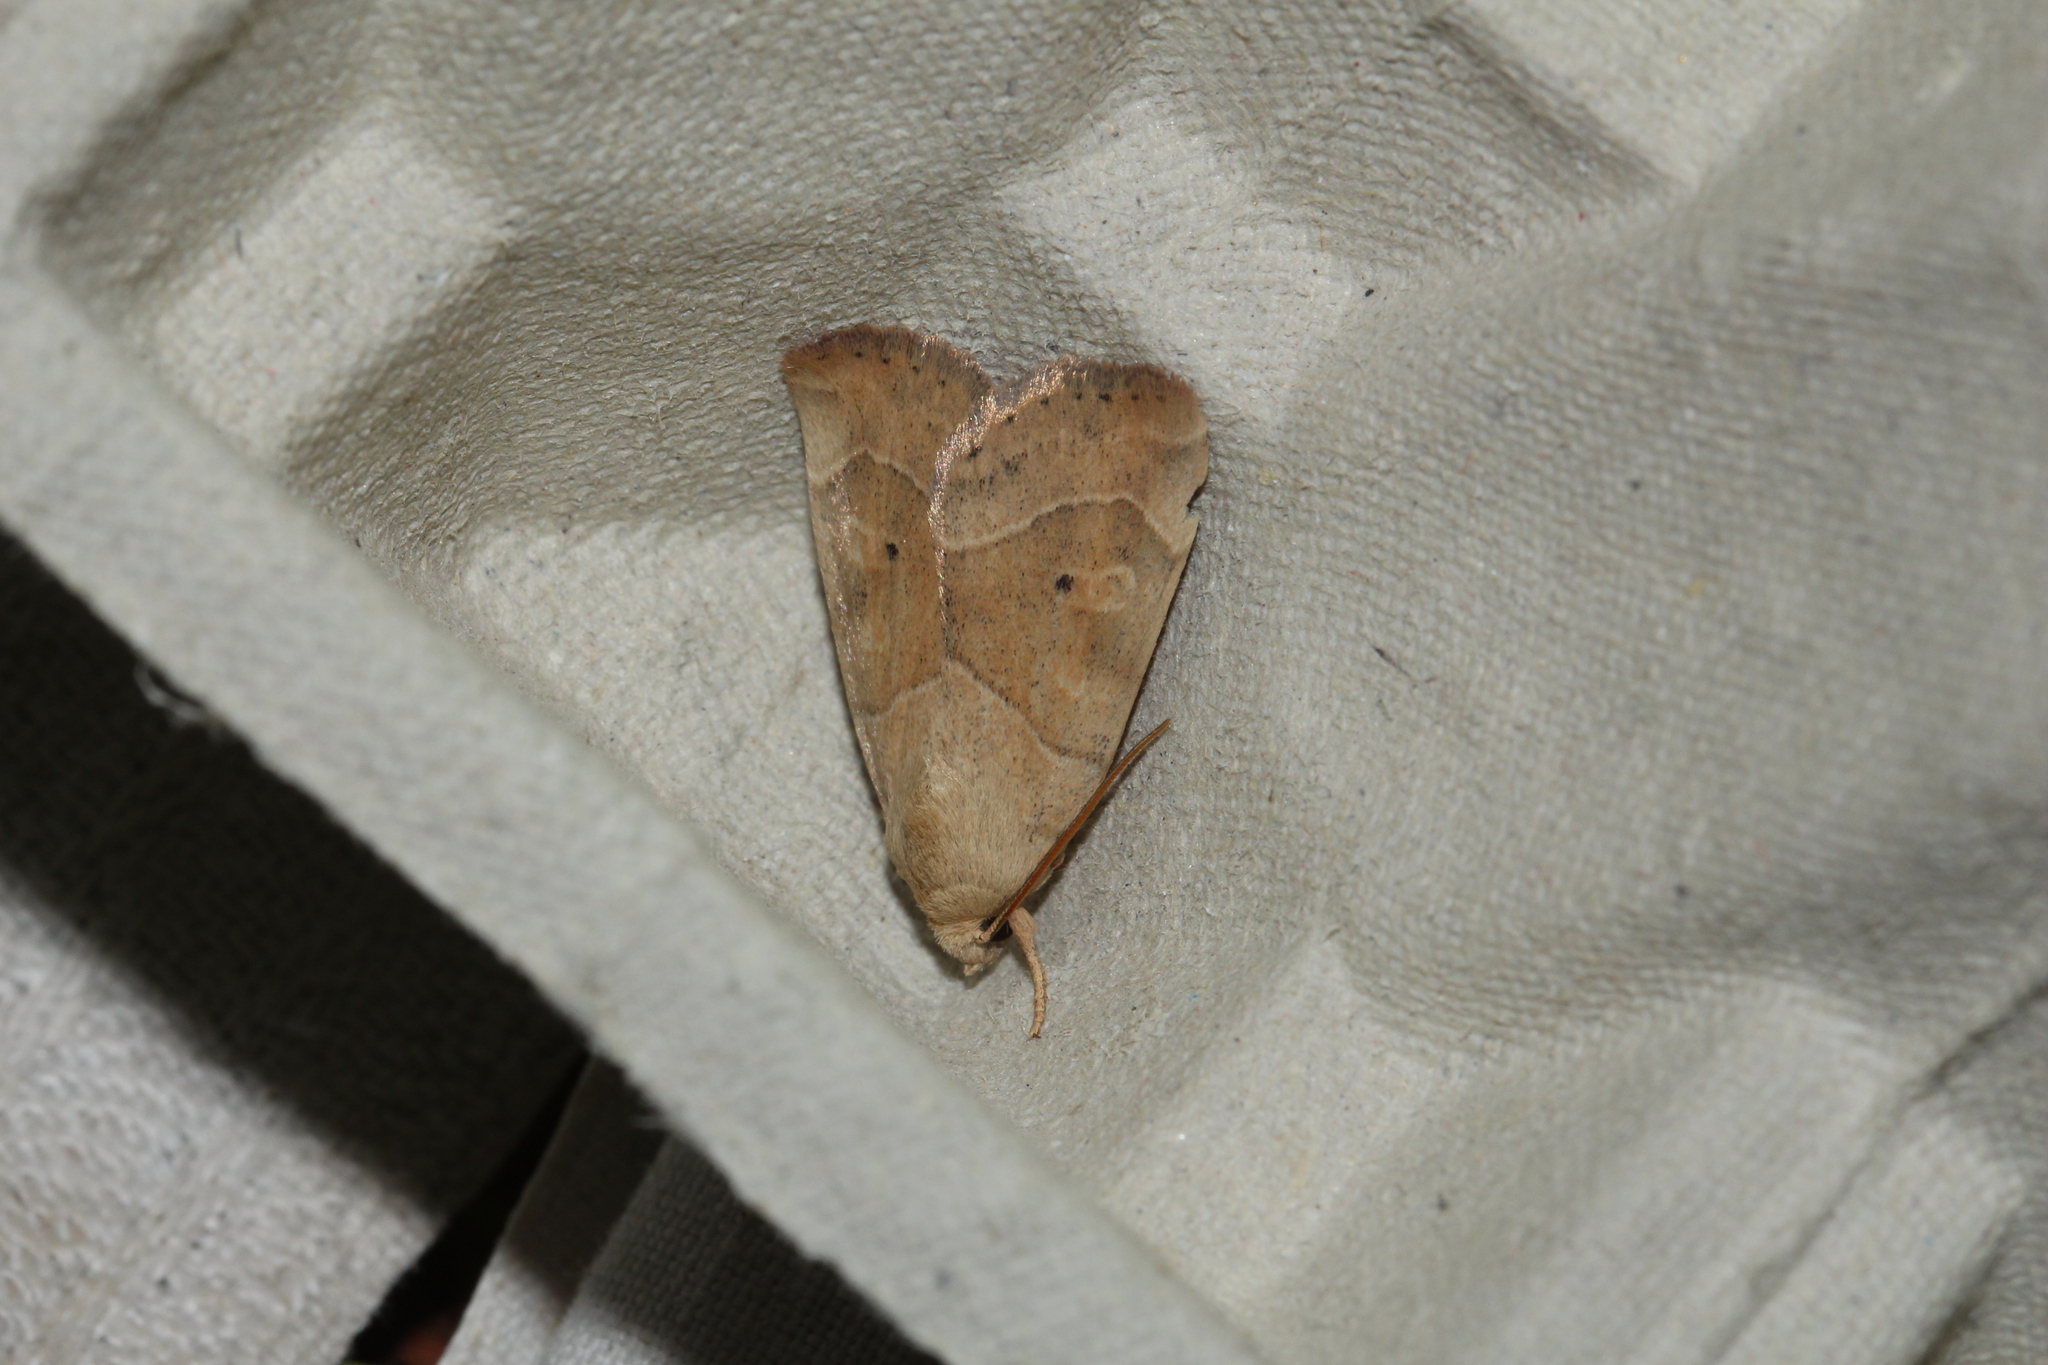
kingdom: Animalia
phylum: Arthropoda
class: Insecta
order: Lepidoptera
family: Noctuidae
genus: Cosmia
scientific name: Cosmia trapezina
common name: Dun-bar
